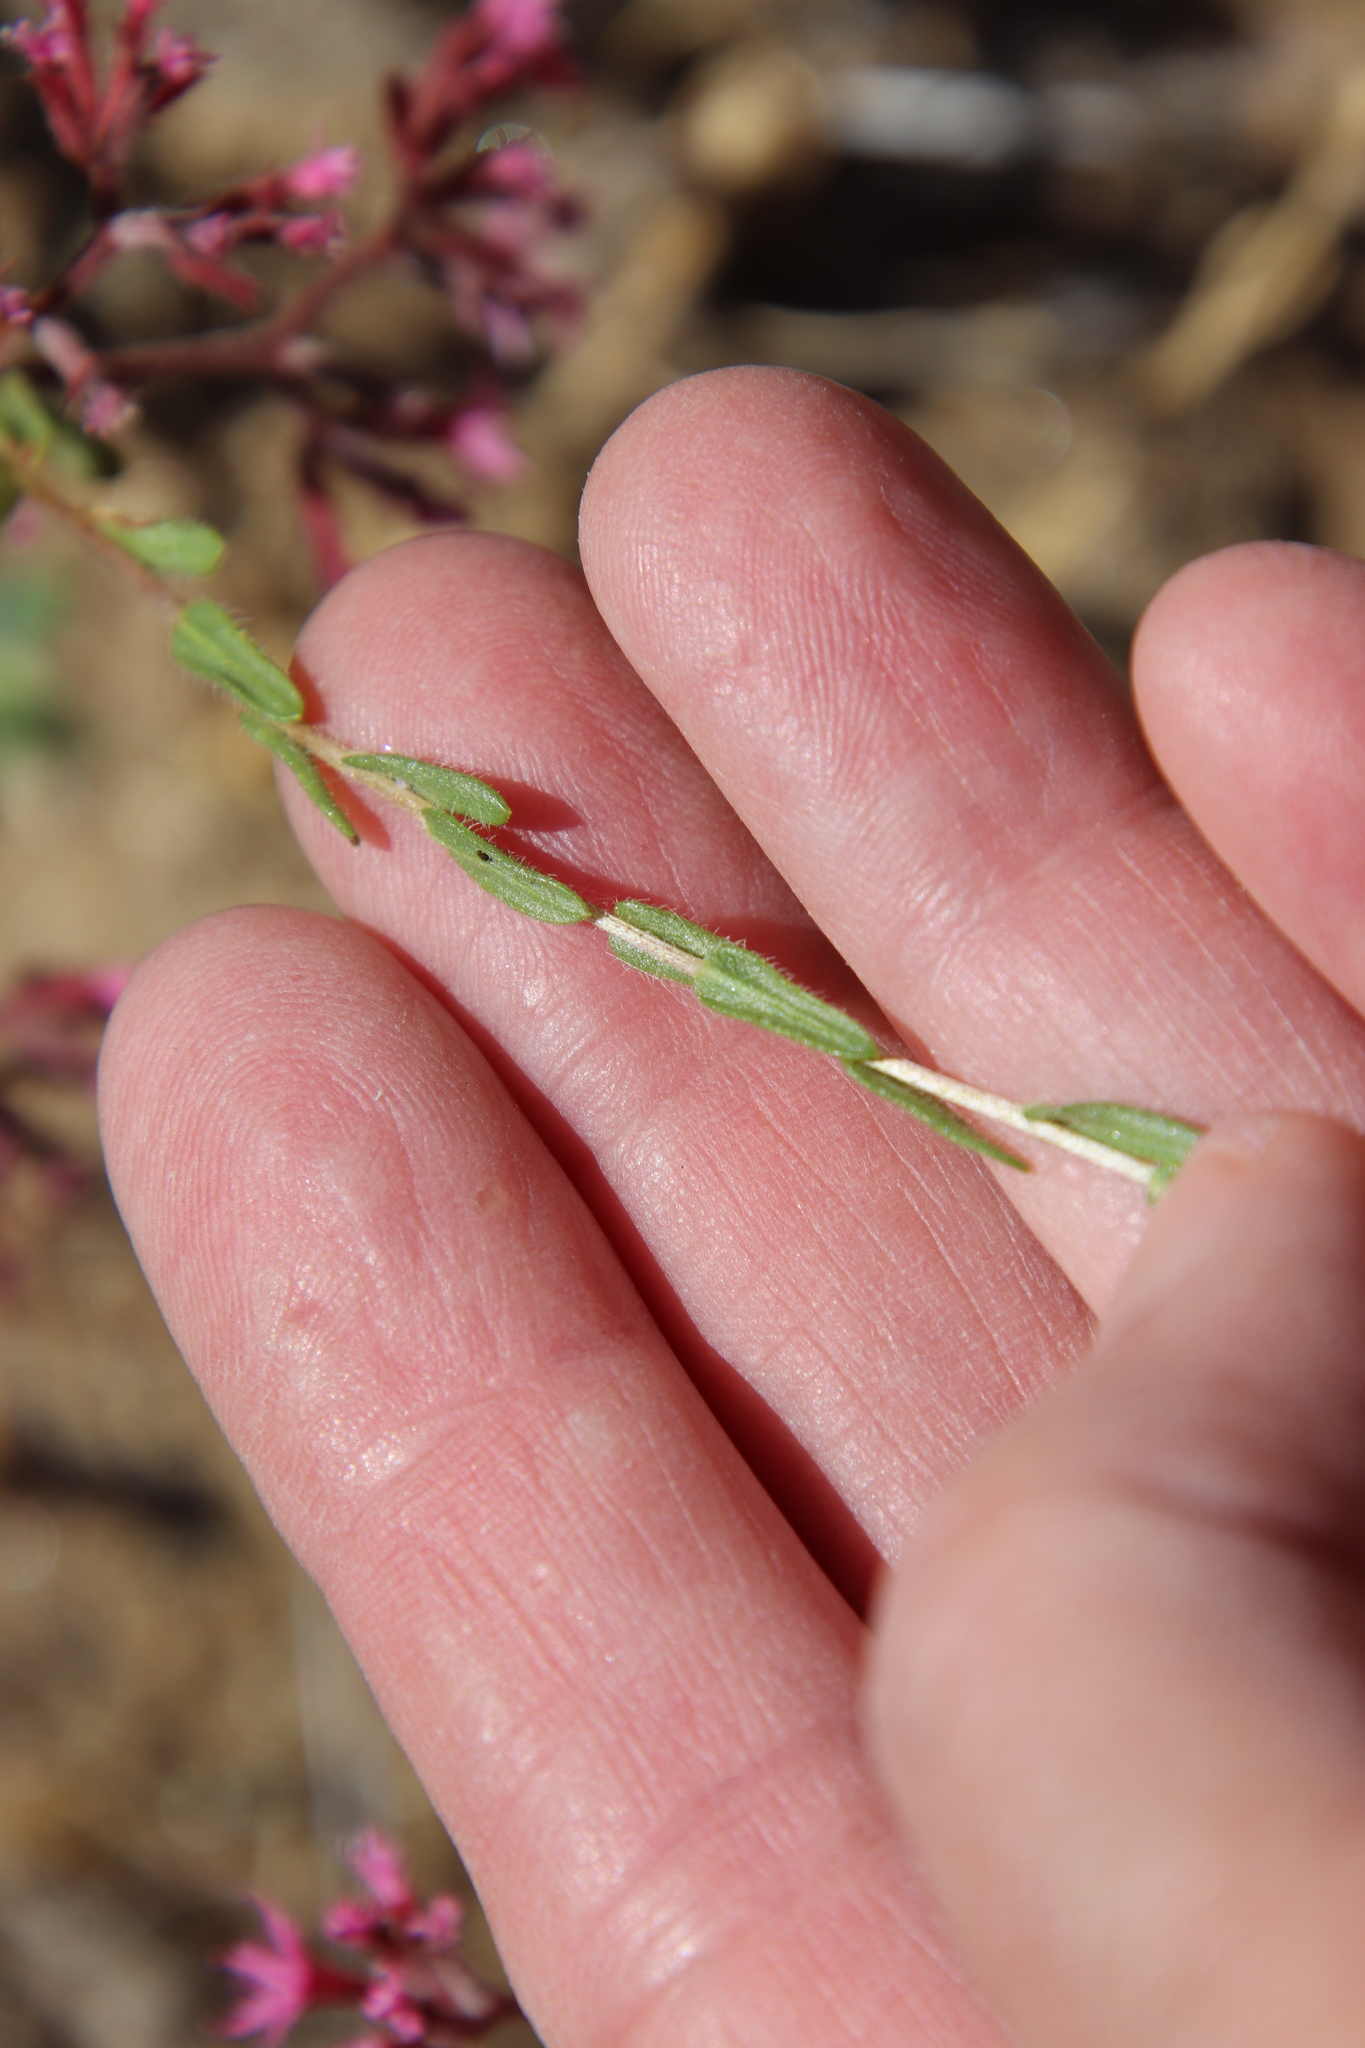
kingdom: Plantae
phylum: Tracheophyta
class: Magnoliopsida
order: Asterales
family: Asteraceae
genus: Deinandra
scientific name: Deinandra fasciculata
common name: Clustered tarweed
